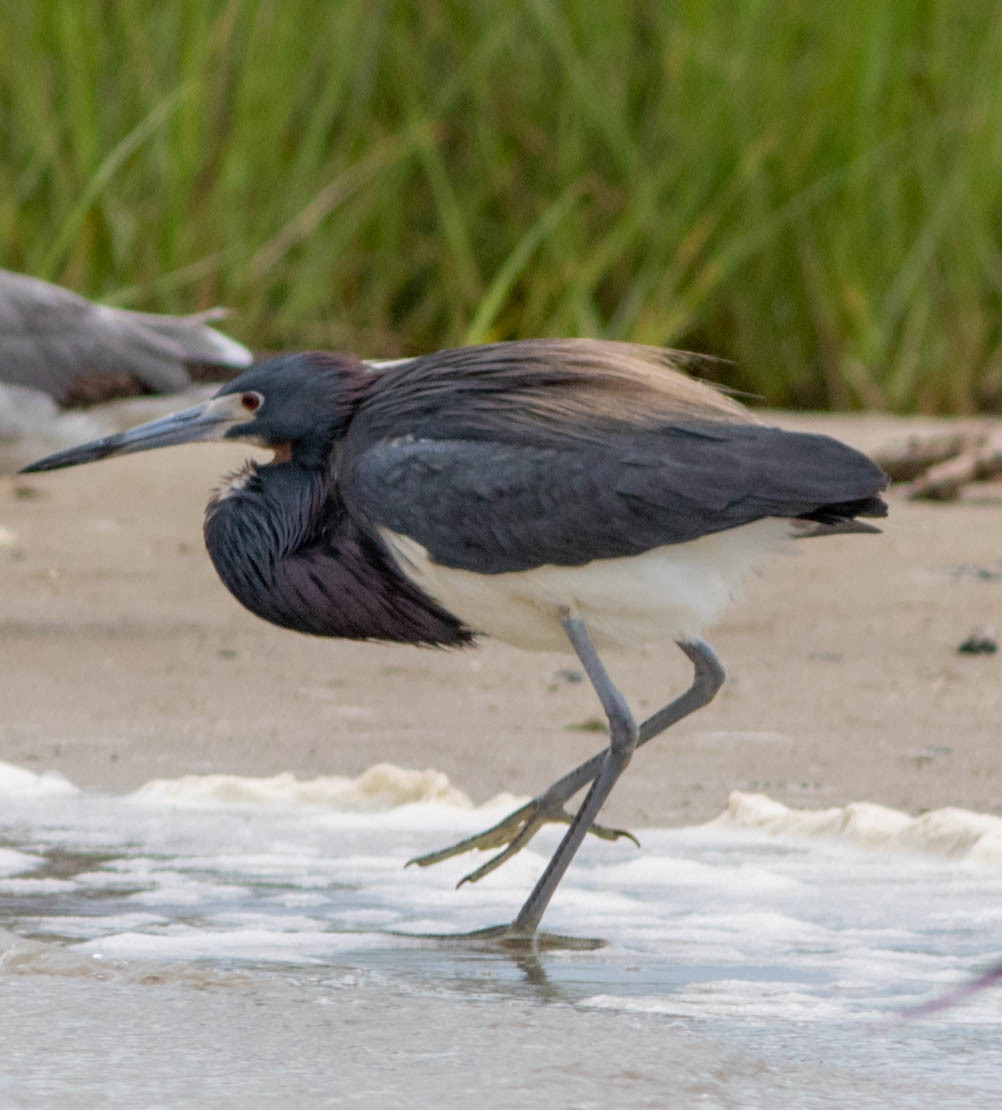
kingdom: Animalia
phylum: Chordata
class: Aves
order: Pelecaniformes
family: Ardeidae
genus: Egretta
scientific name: Egretta tricolor
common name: Tricolored heron
